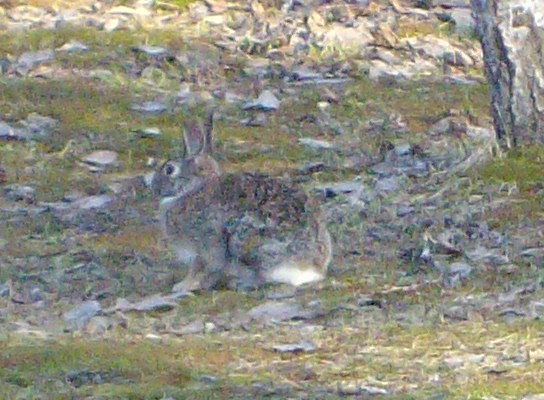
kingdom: Animalia
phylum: Chordata
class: Mammalia
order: Lagomorpha
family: Leporidae
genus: Sylvilagus
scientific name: Sylvilagus floridanus
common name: Eastern cottontail
